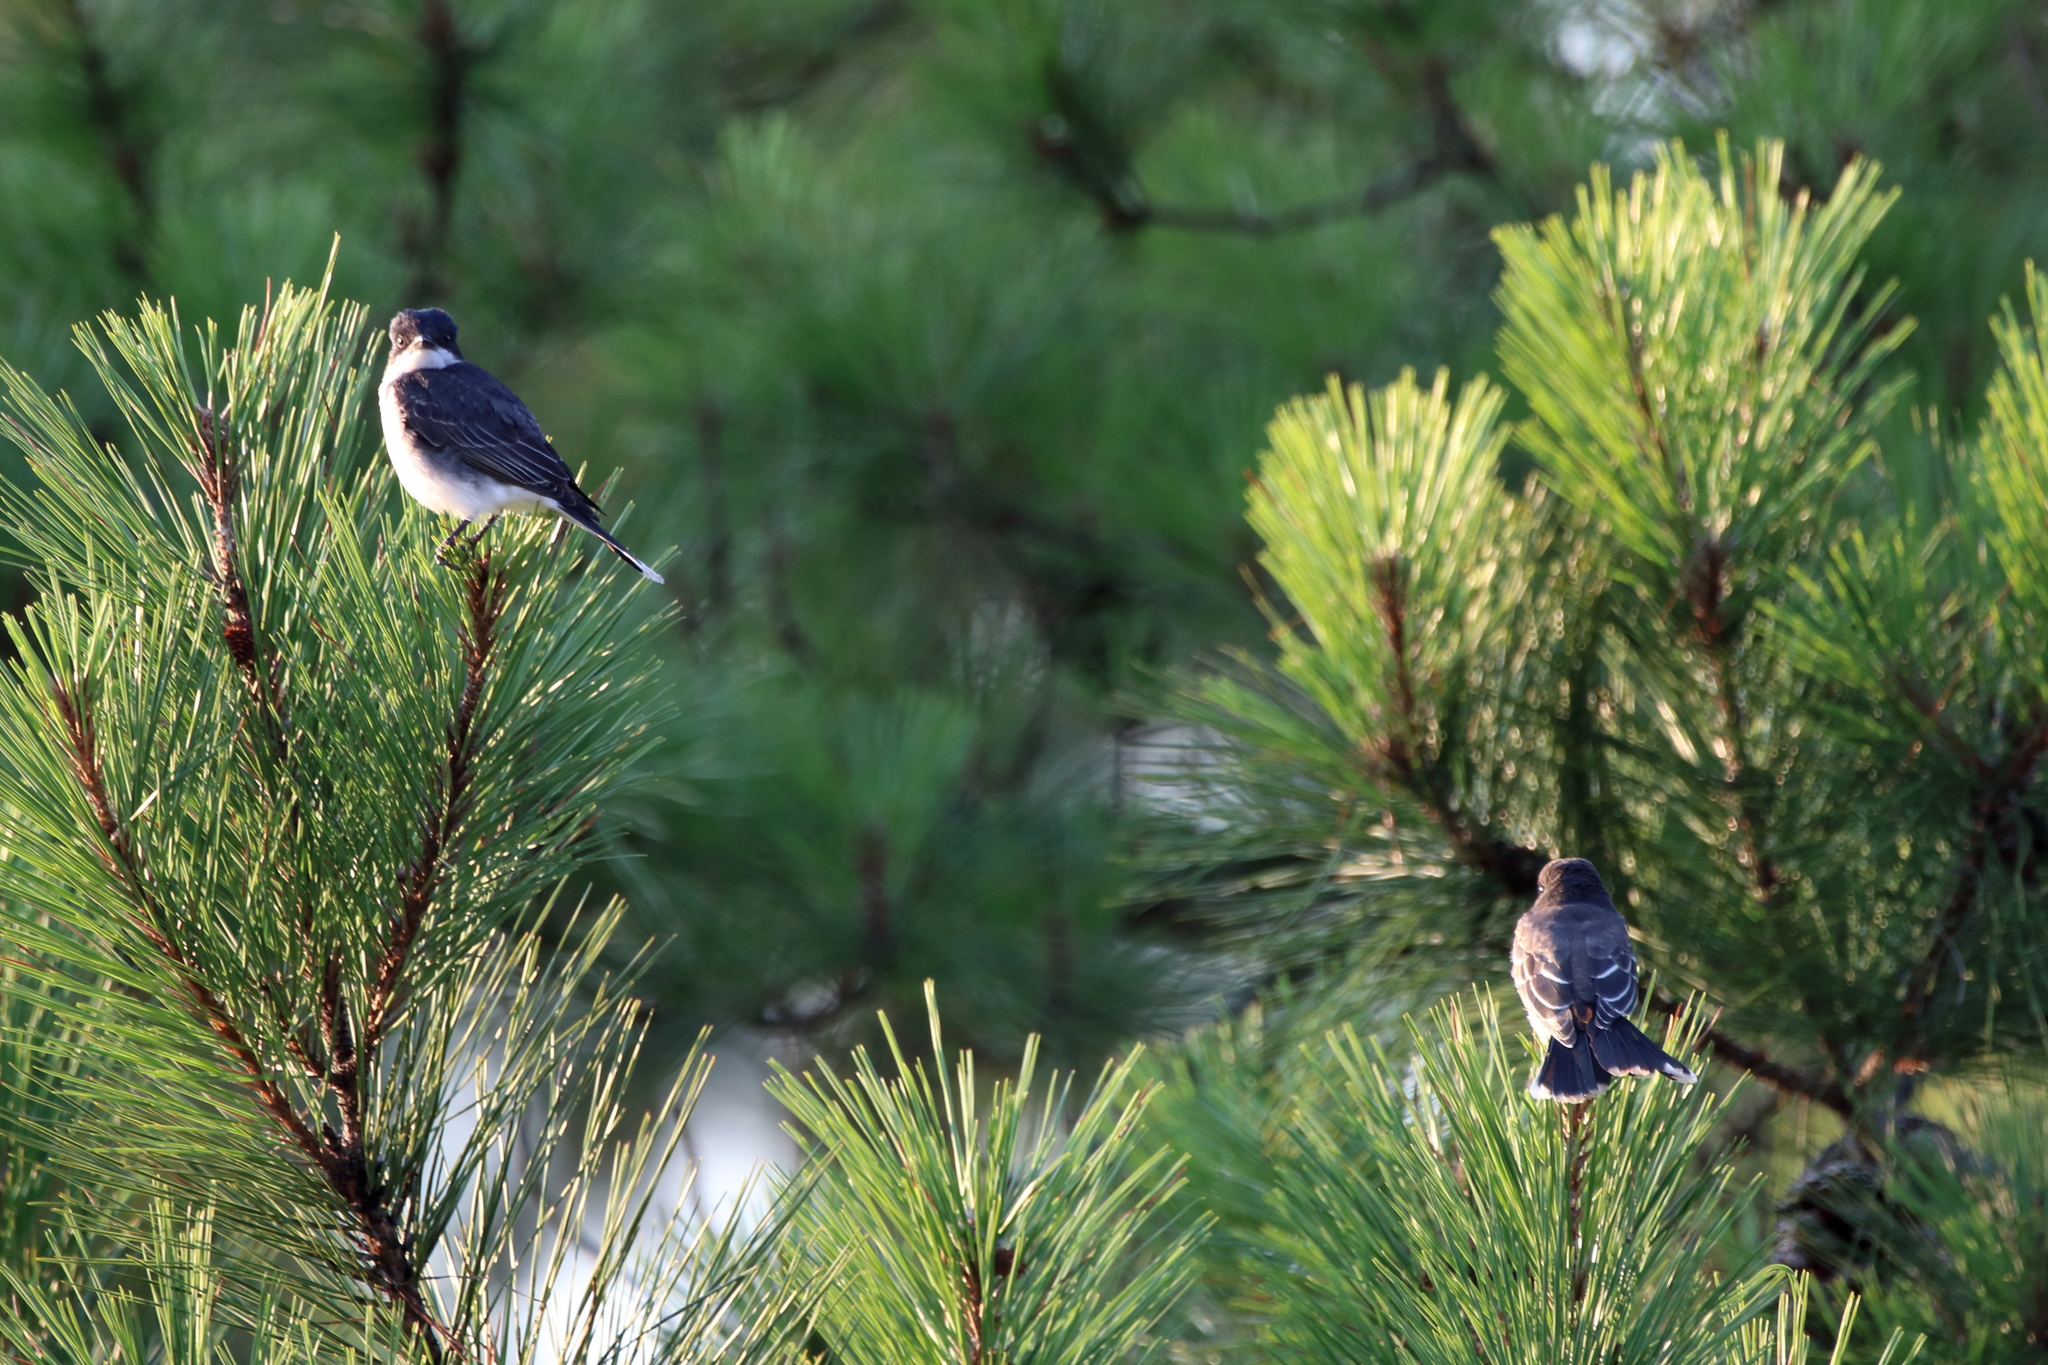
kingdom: Animalia
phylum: Chordata
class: Aves
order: Passeriformes
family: Tyrannidae
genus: Tyrannus
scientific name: Tyrannus tyrannus
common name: Eastern kingbird
